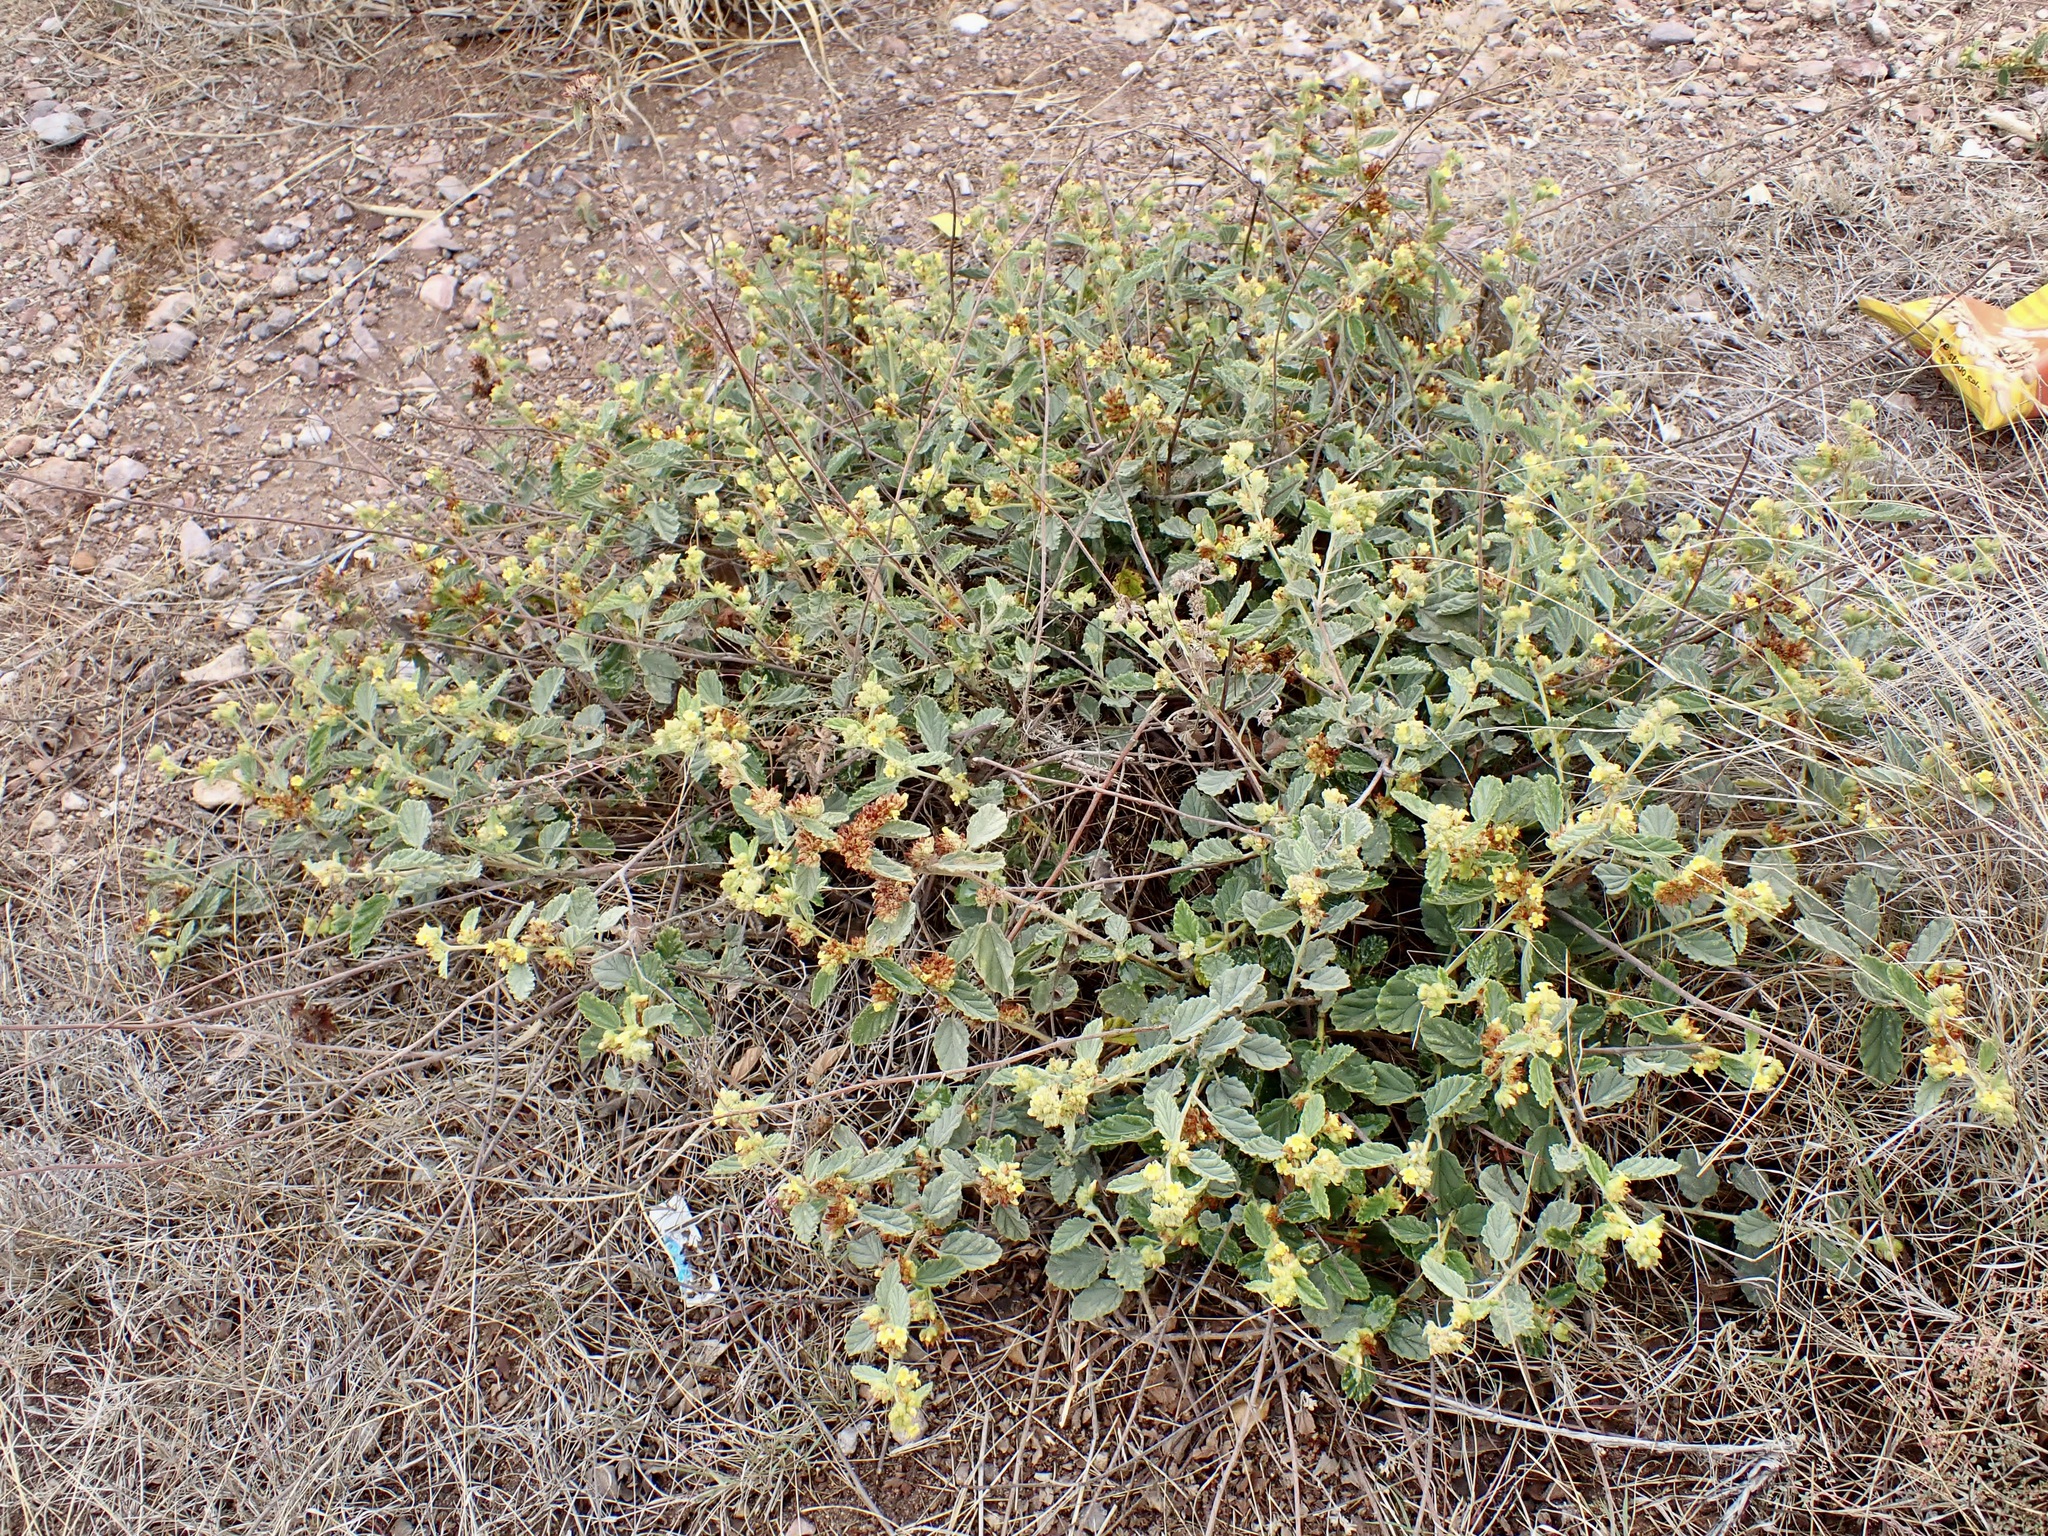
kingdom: Plantae
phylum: Tracheophyta
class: Magnoliopsida
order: Malvales
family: Malvaceae
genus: Waltheria
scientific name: Waltheria indica
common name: Leather-coat
